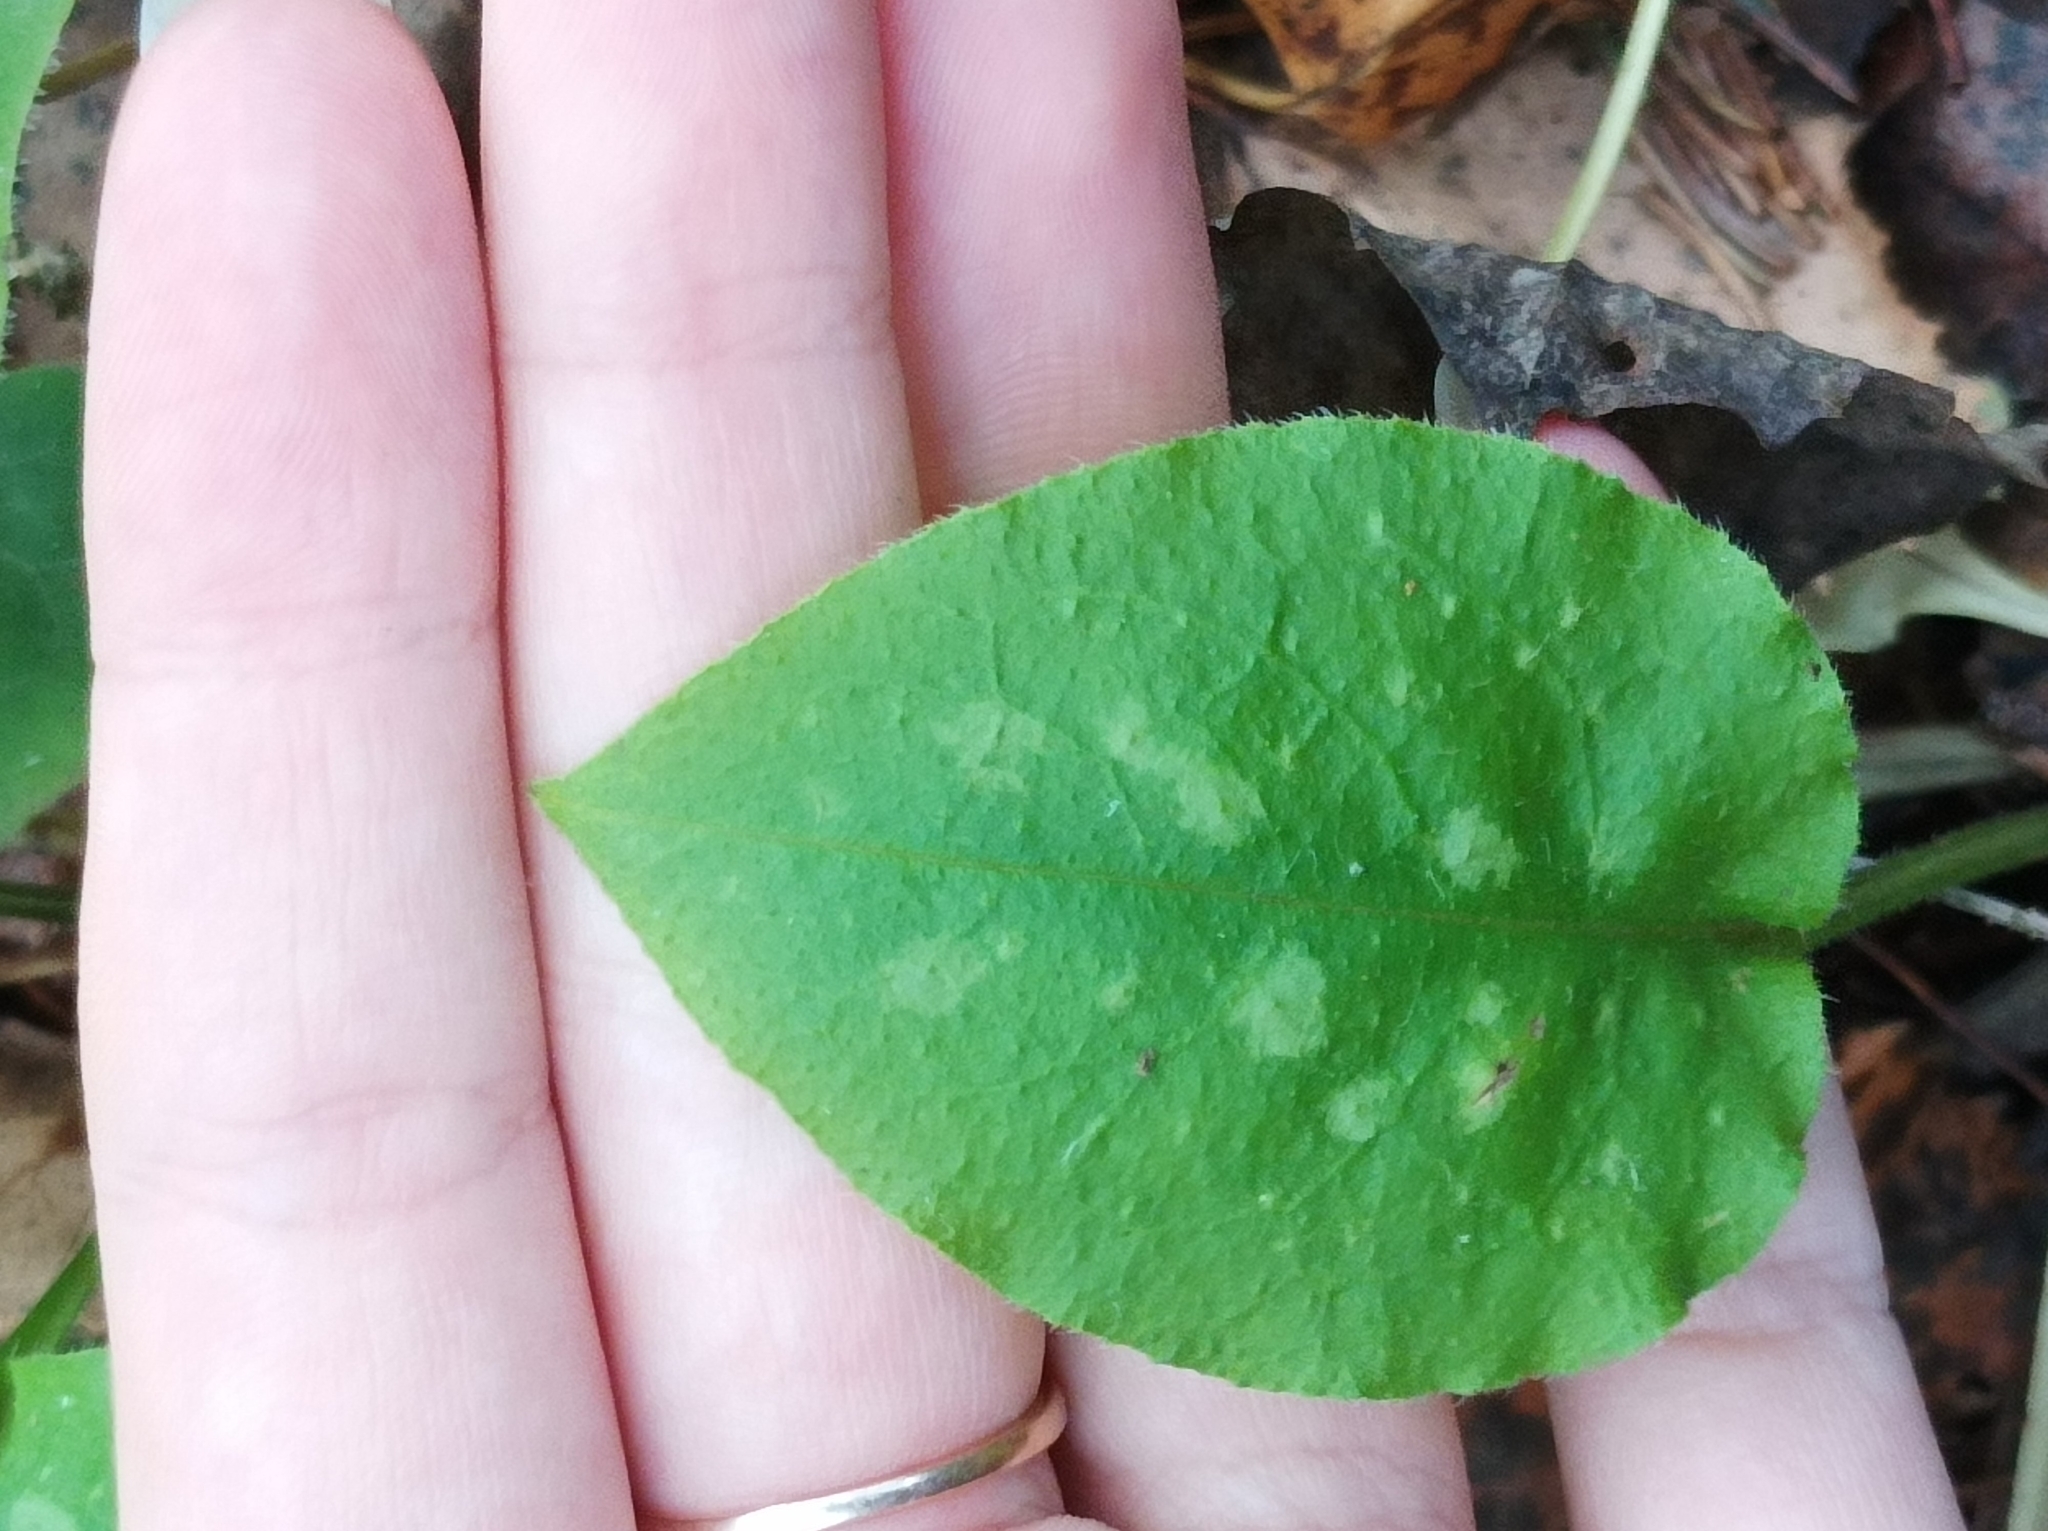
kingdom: Plantae
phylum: Tracheophyta
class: Magnoliopsida
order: Boraginales
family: Boraginaceae
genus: Pulmonaria
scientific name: Pulmonaria obscura
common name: Suffolk lungwort
